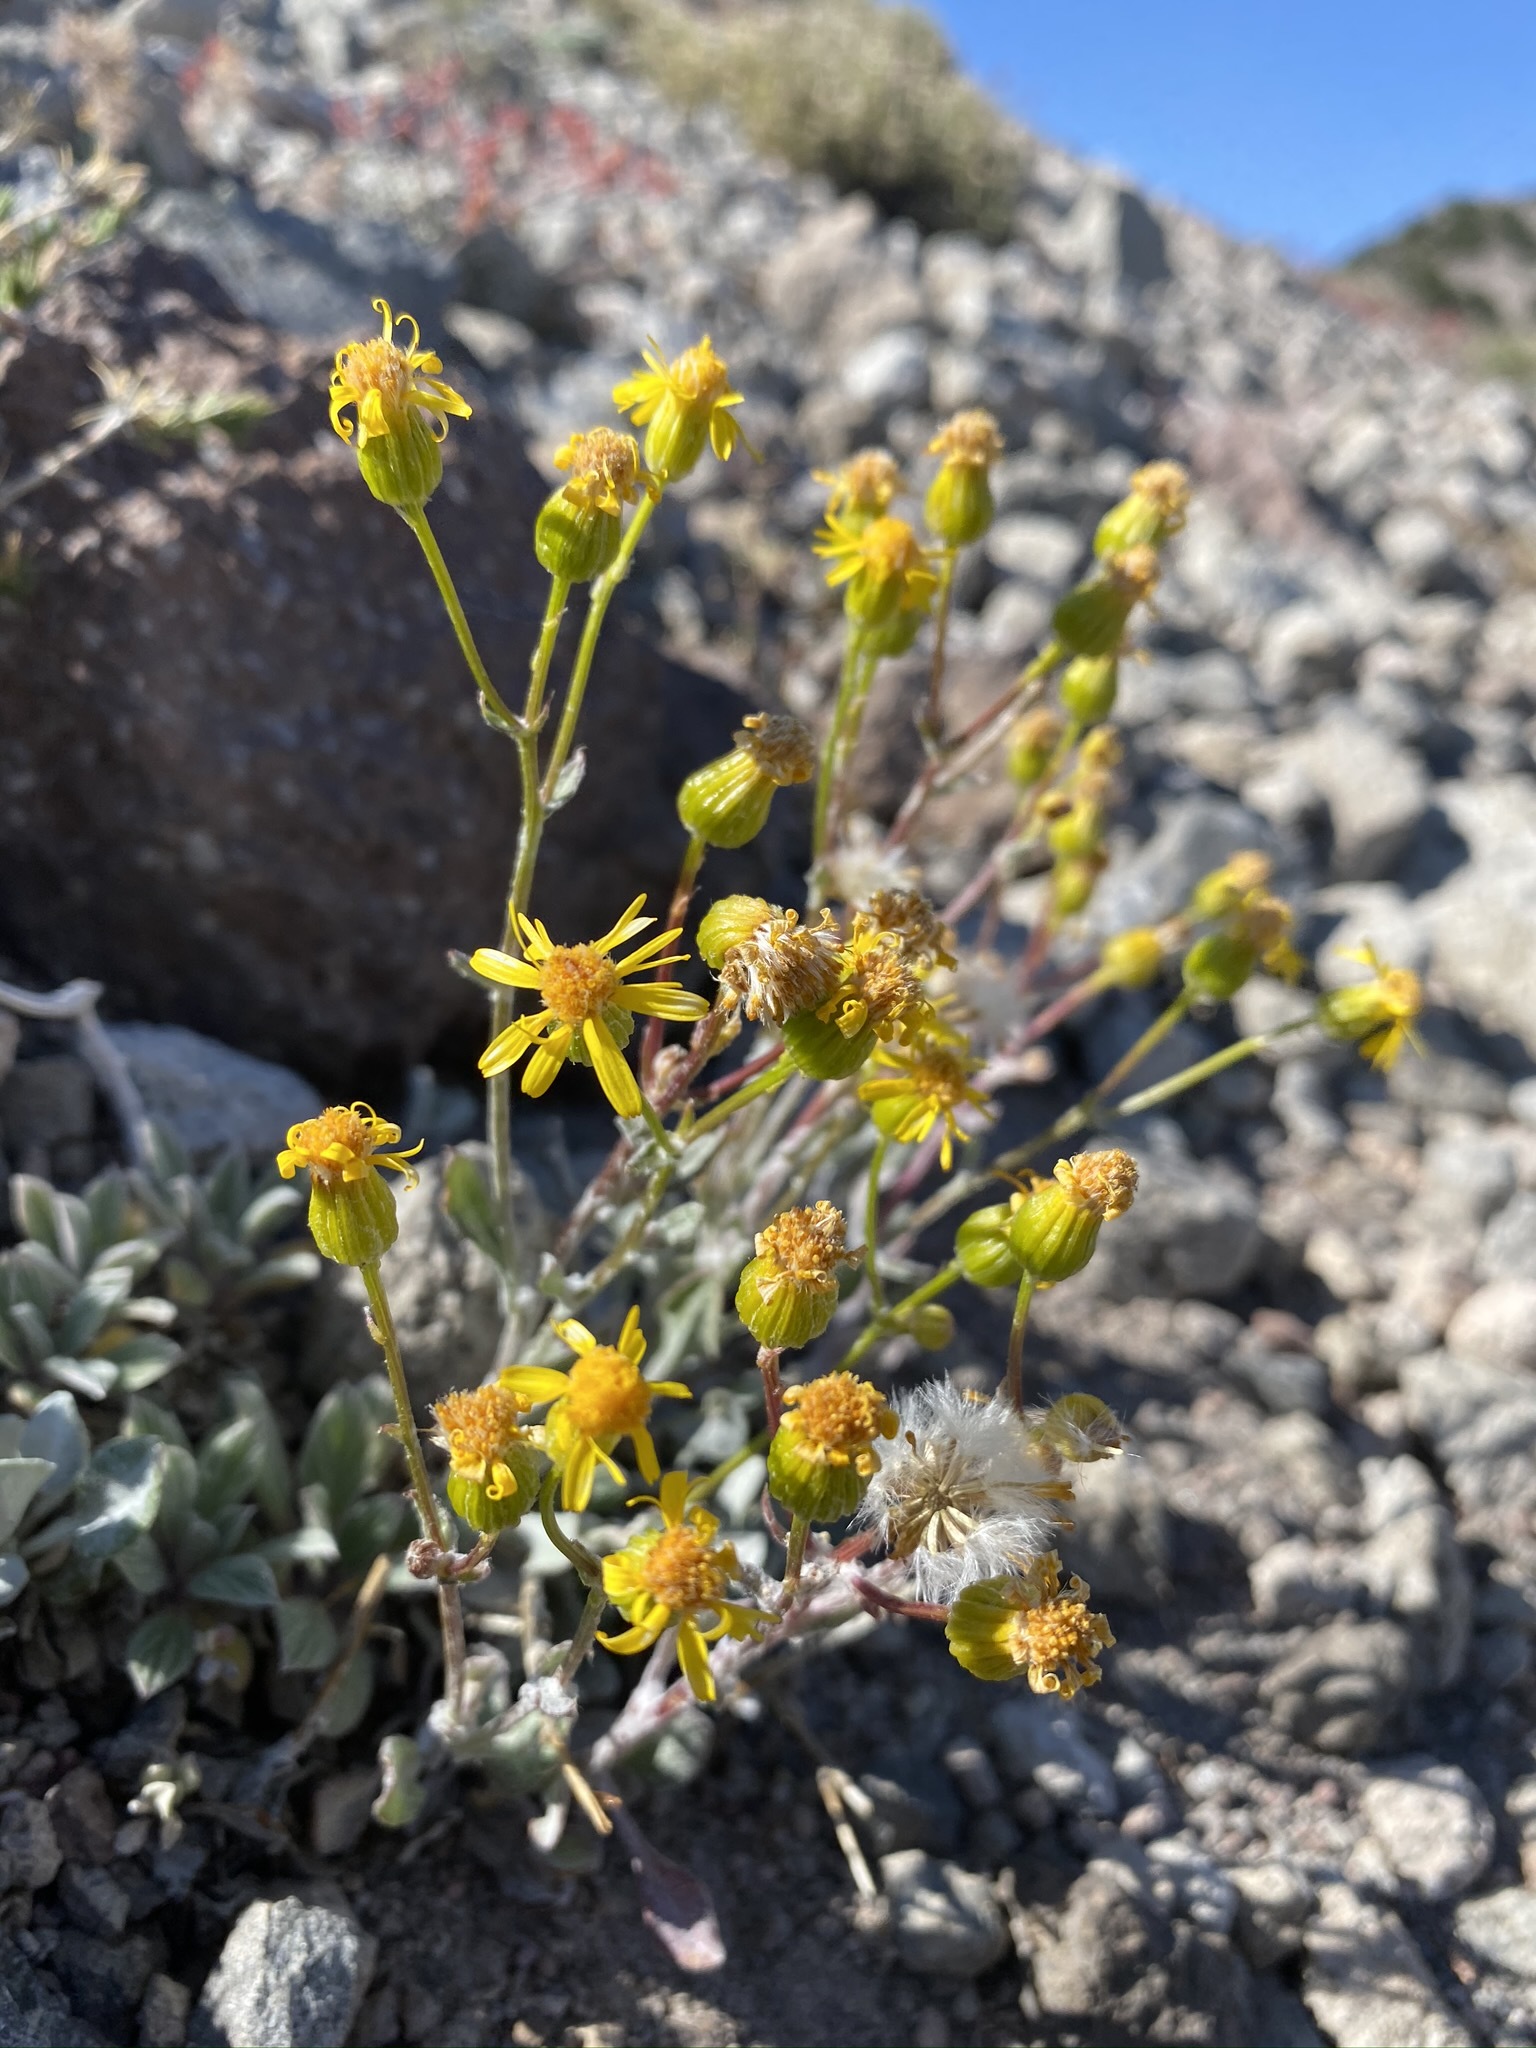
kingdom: Plantae
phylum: Tracheophyta
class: Magnoliopsida
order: Asterales
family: Asteraceae
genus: Packera
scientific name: Packera cana
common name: Woolly groundsel
